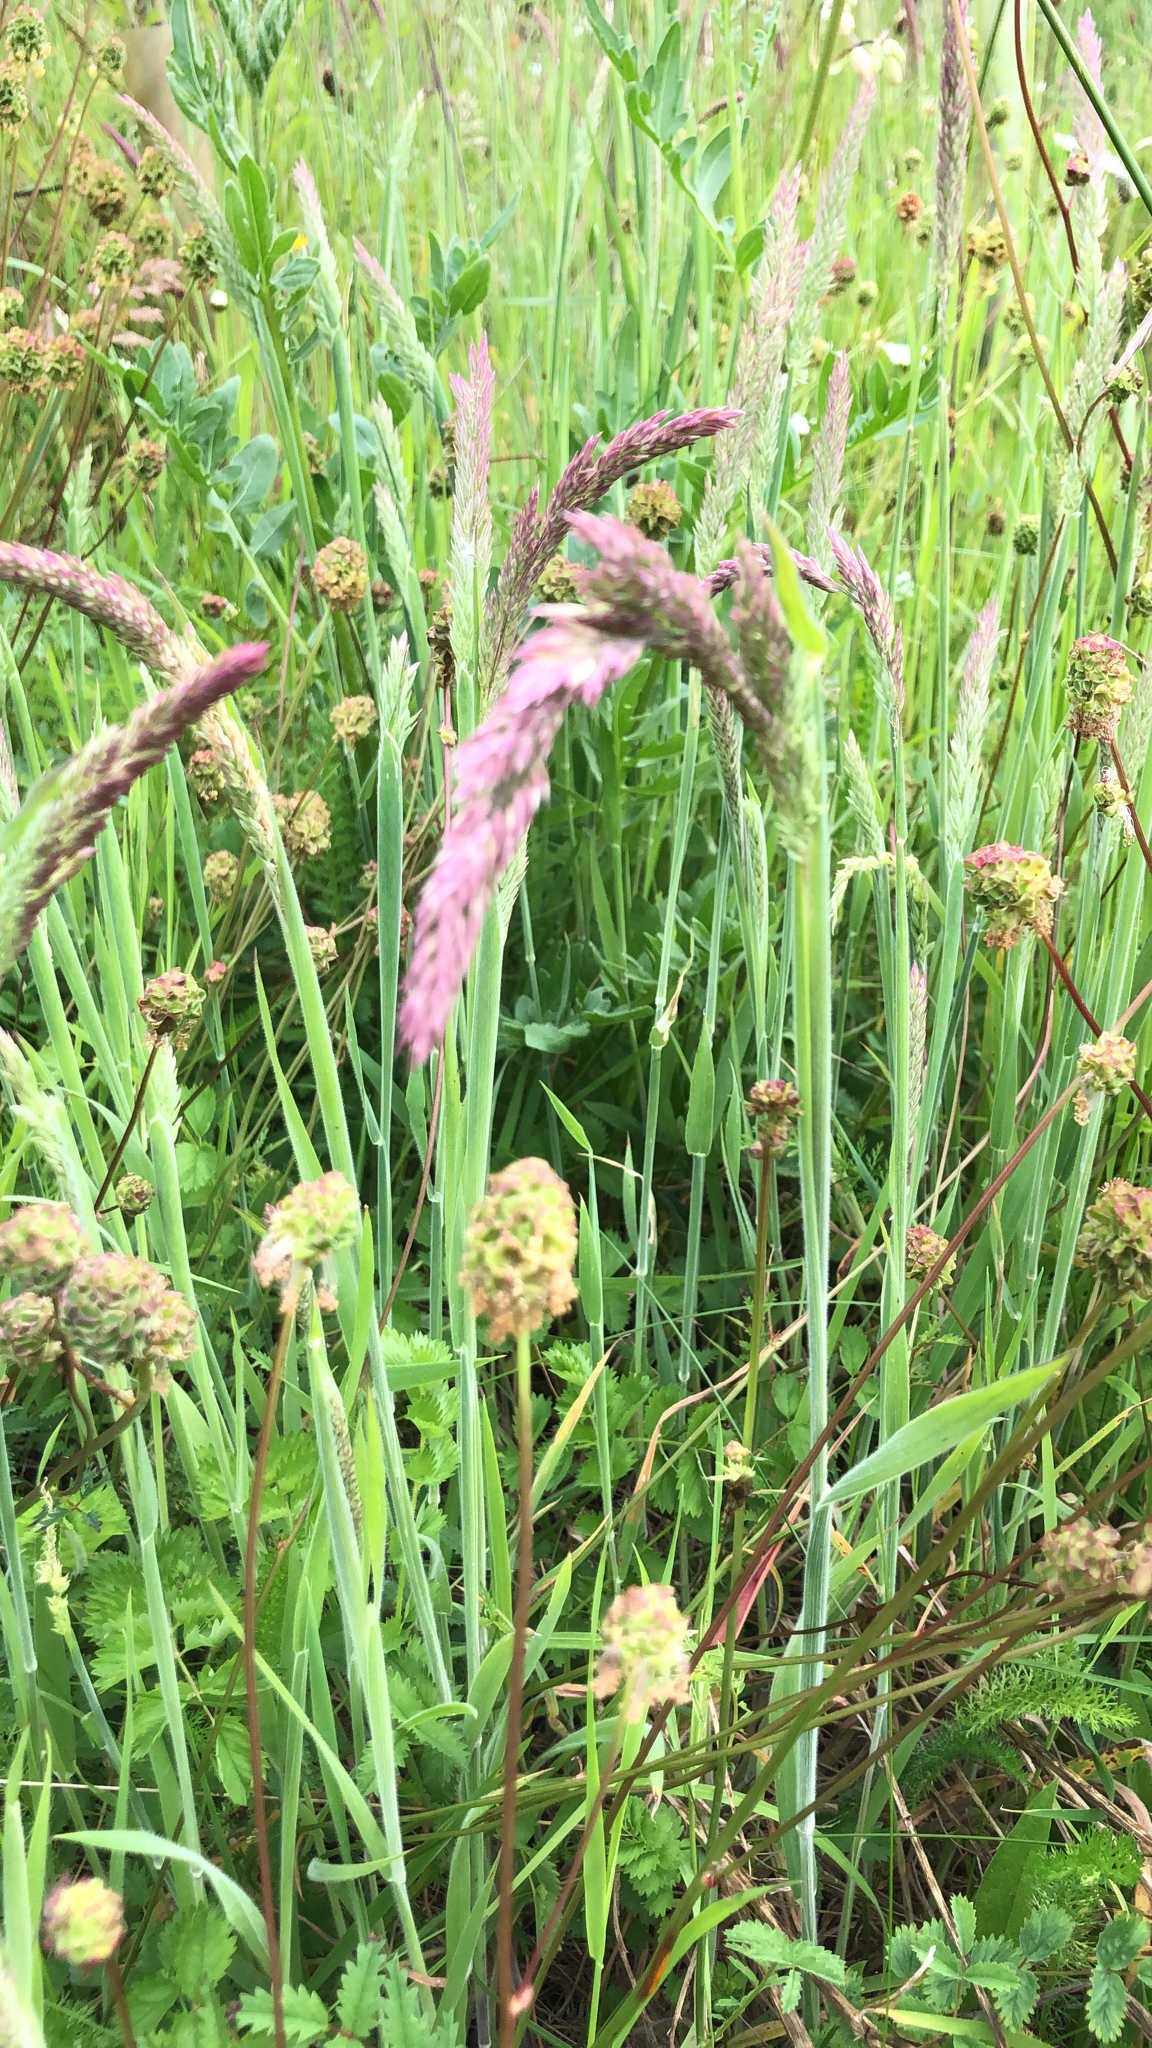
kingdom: Plantae
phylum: Tracheophyta
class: Liliopsida
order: Poales
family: Poaceae
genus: Holcus
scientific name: Holcus lanatus
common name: Yorkshire-fog
